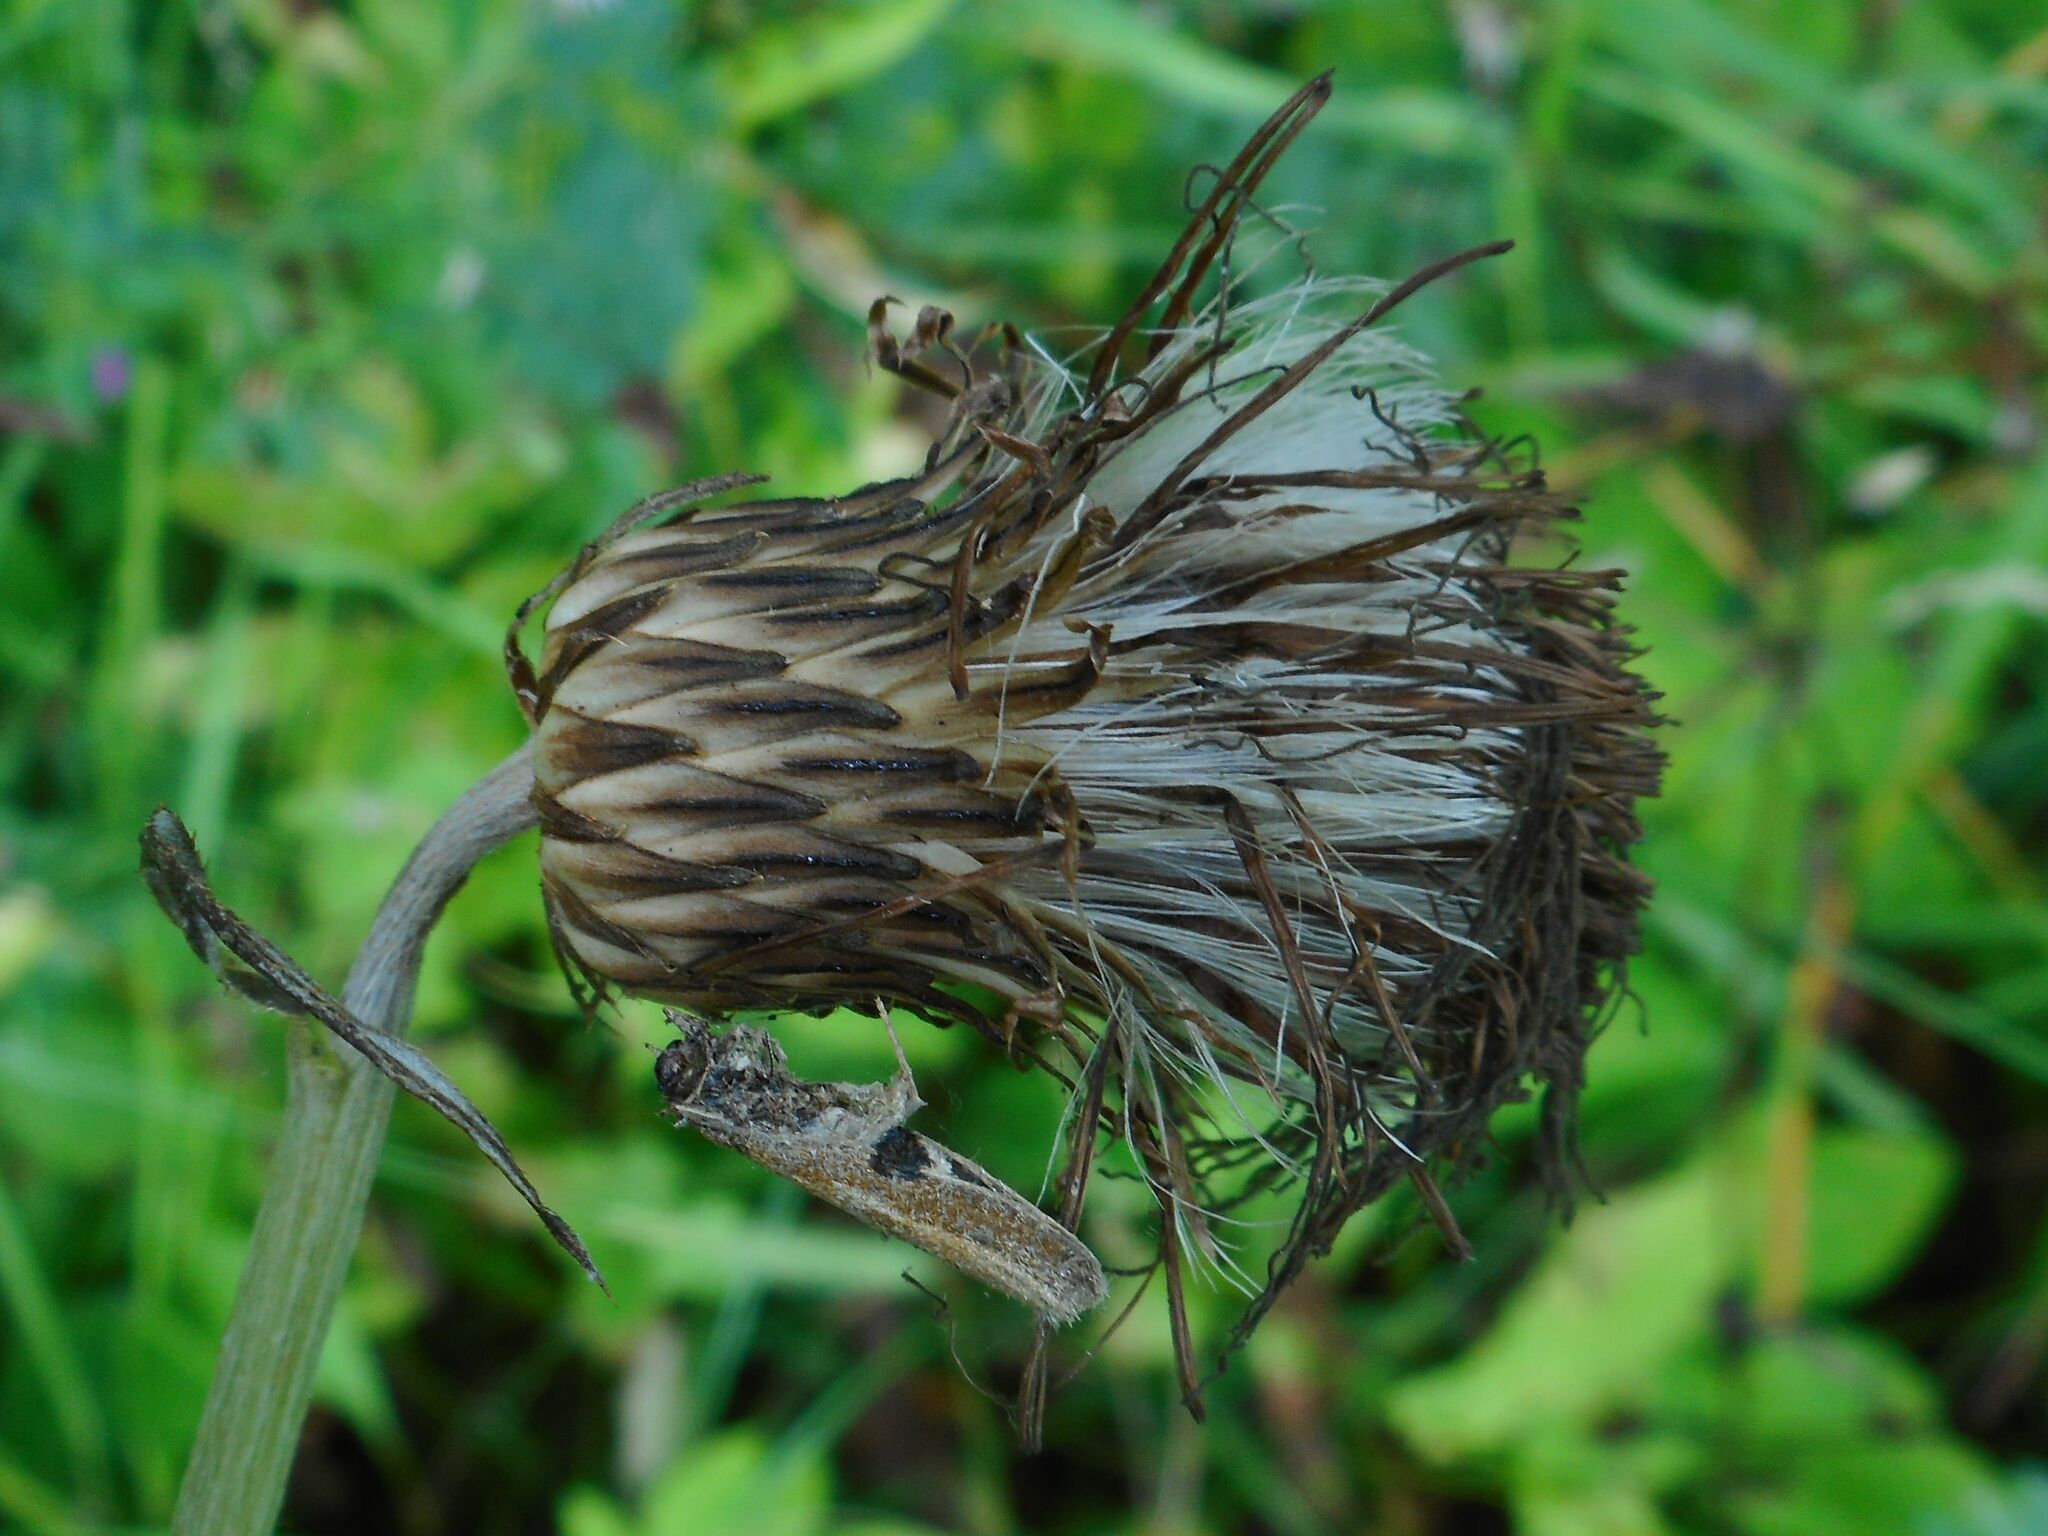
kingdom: Plantae
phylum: Tracheophyta
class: Magnoliopsida
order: Asterales
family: Asteraceae
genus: Cirsium
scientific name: Cirsium heterophyllum
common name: Melancholy thistle
